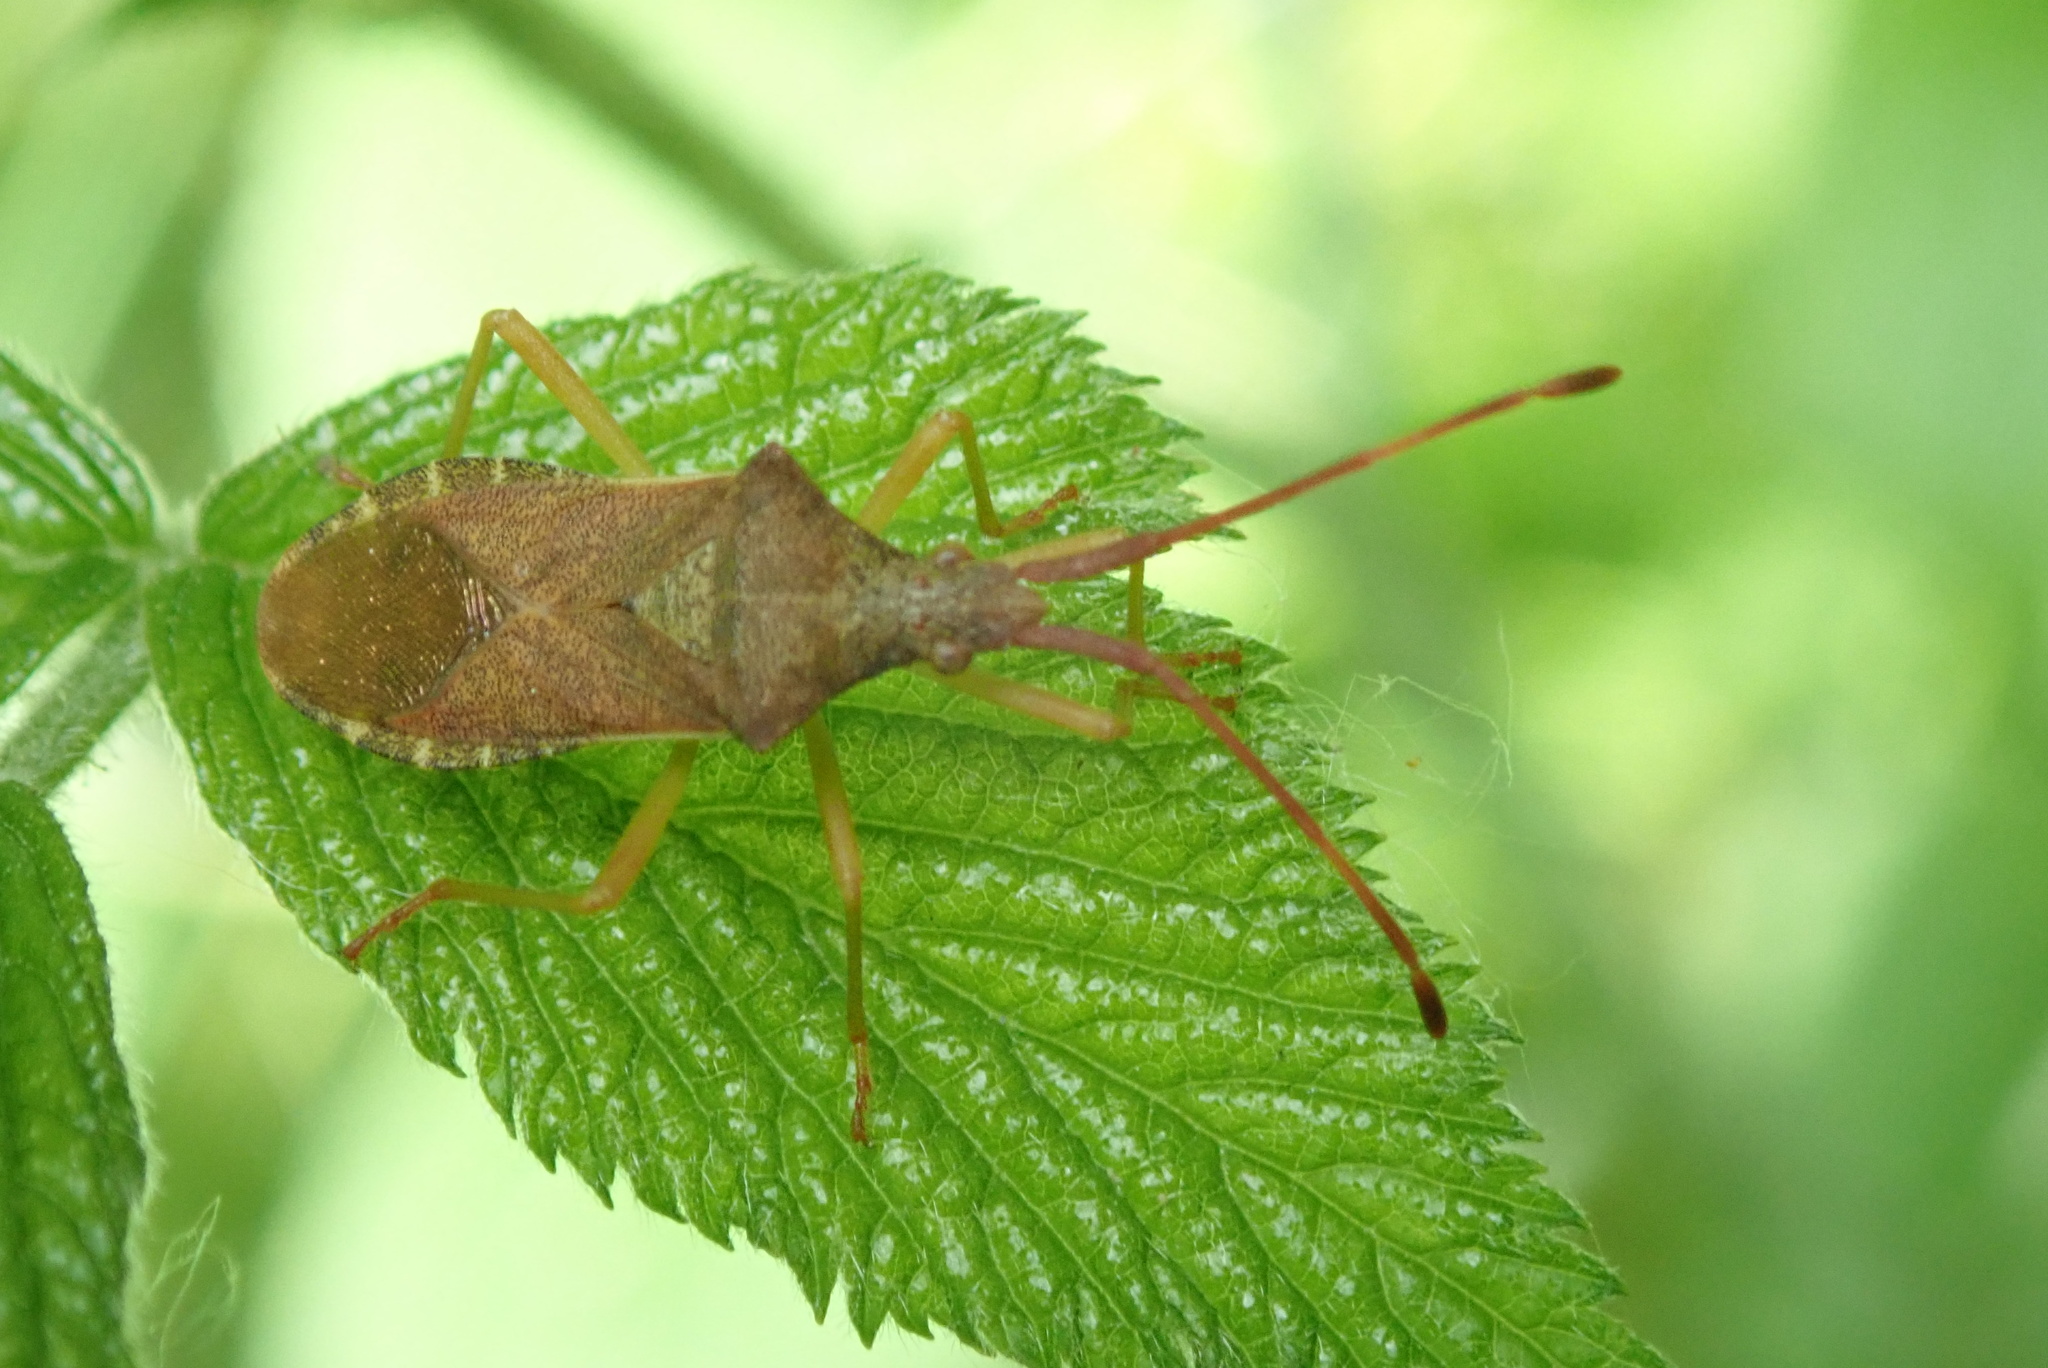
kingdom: Animalia
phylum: Arthropoda
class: Insecta
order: Hemiptera
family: Coreidae
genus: Gonocerus
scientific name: Gonocerus acuteangulatus
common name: Box bug
